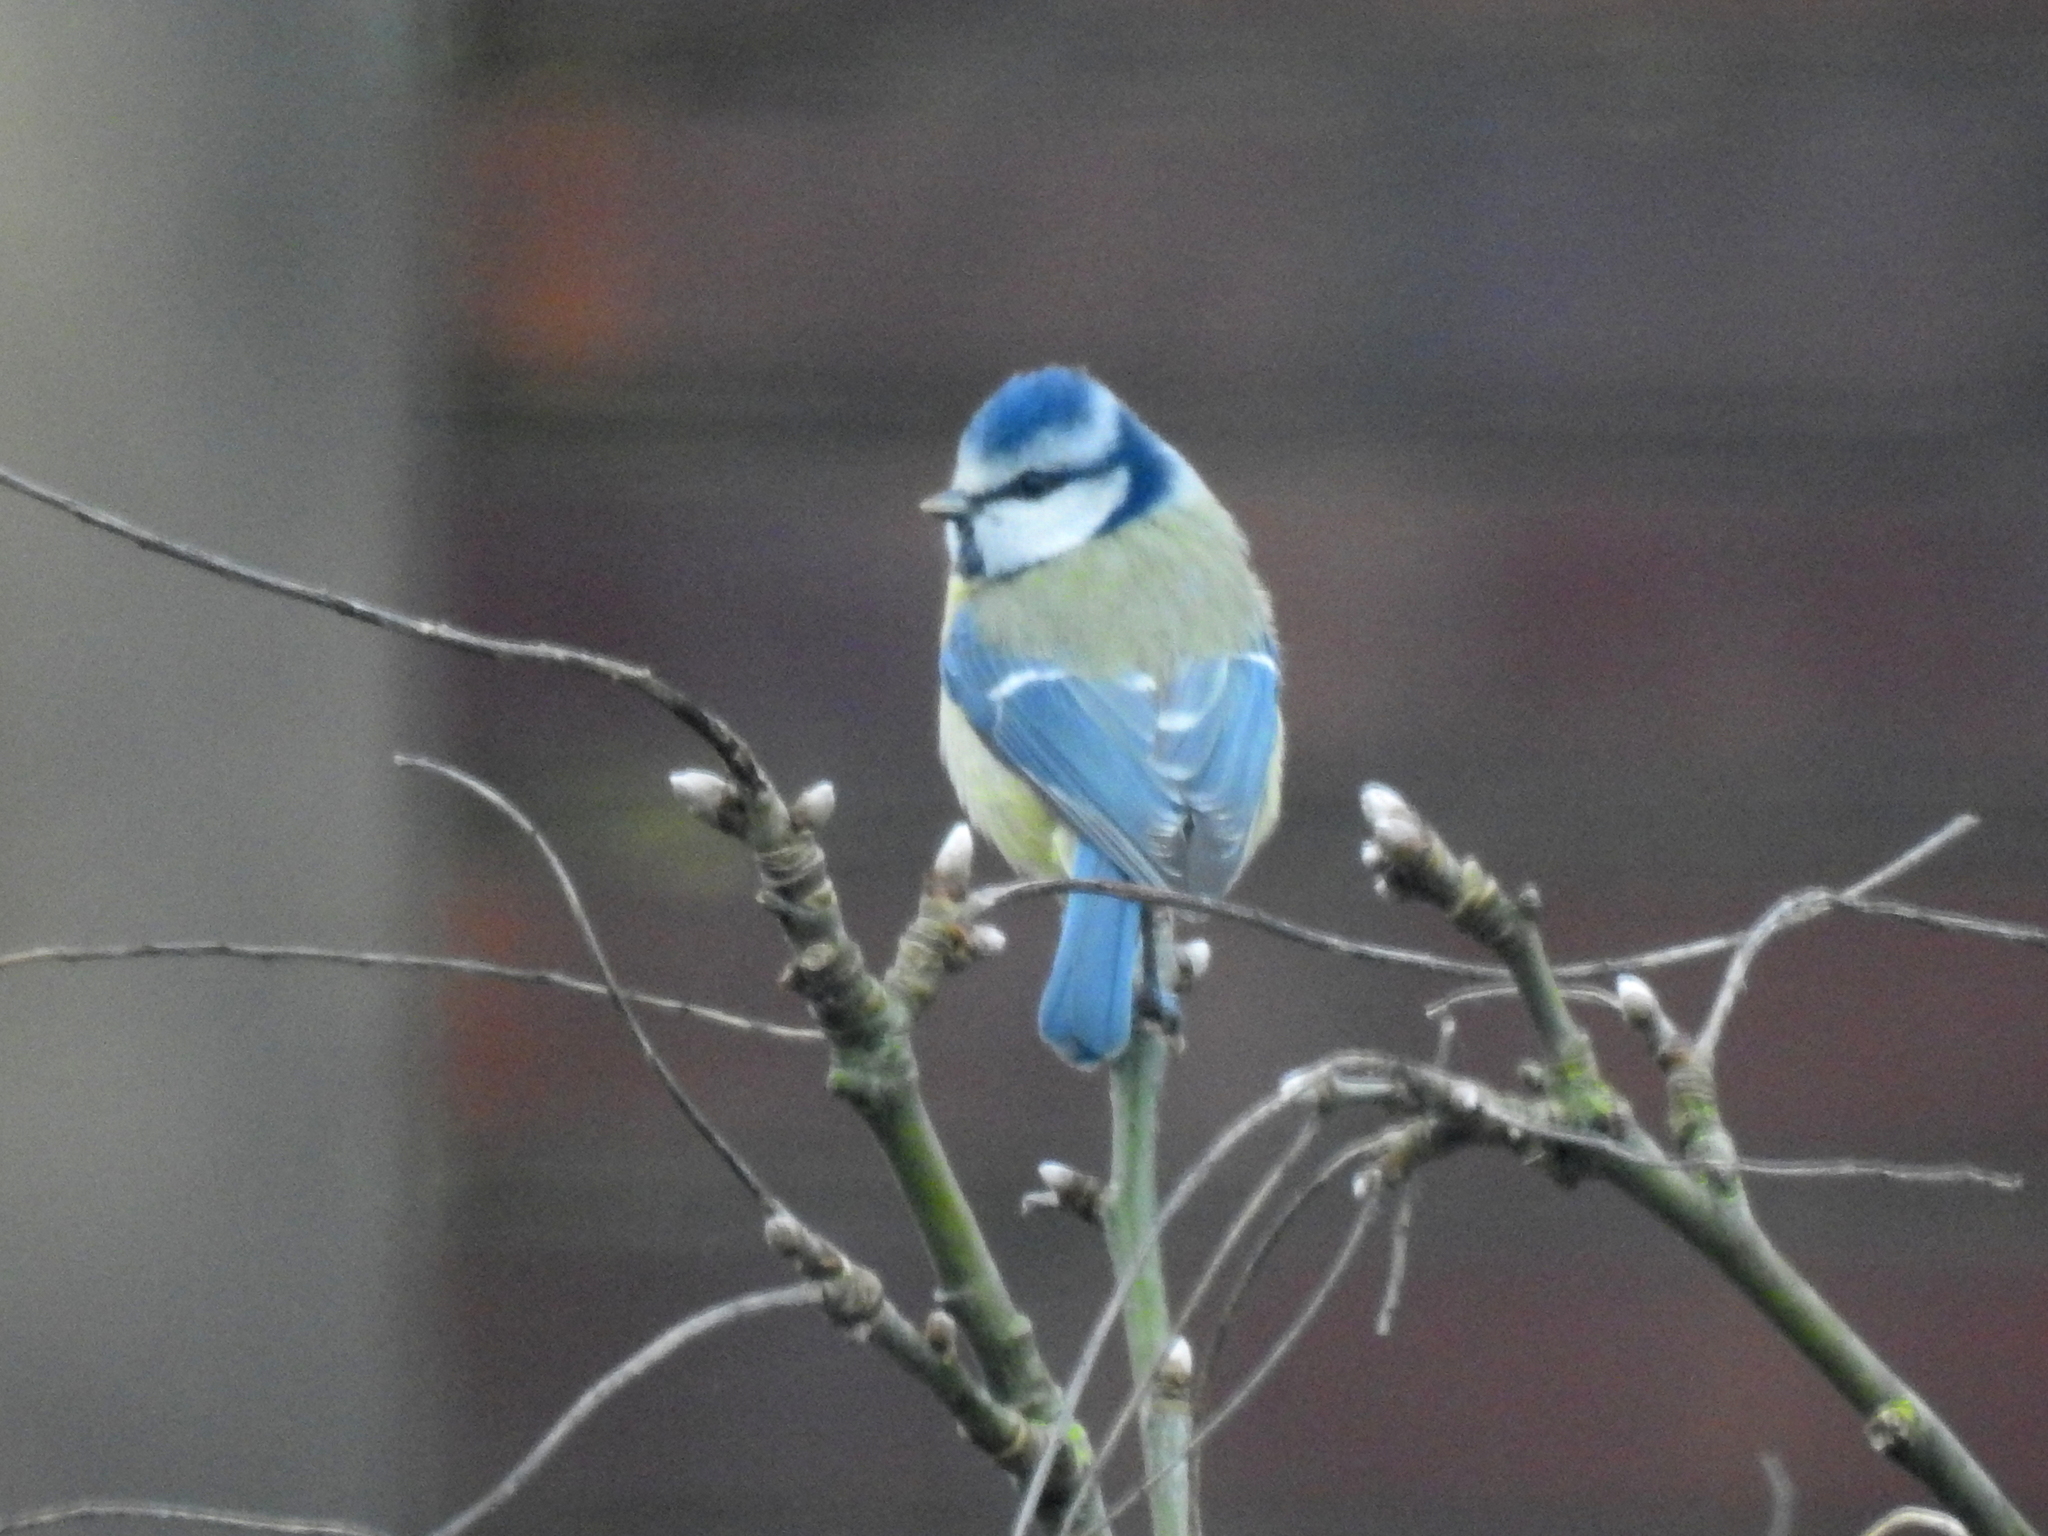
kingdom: Animalia
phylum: Chordata
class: Aves
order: Passeriformes
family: Paridae
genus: Cyanistes
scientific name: Cyanistes caeruleus
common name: Eurasian blue tit
